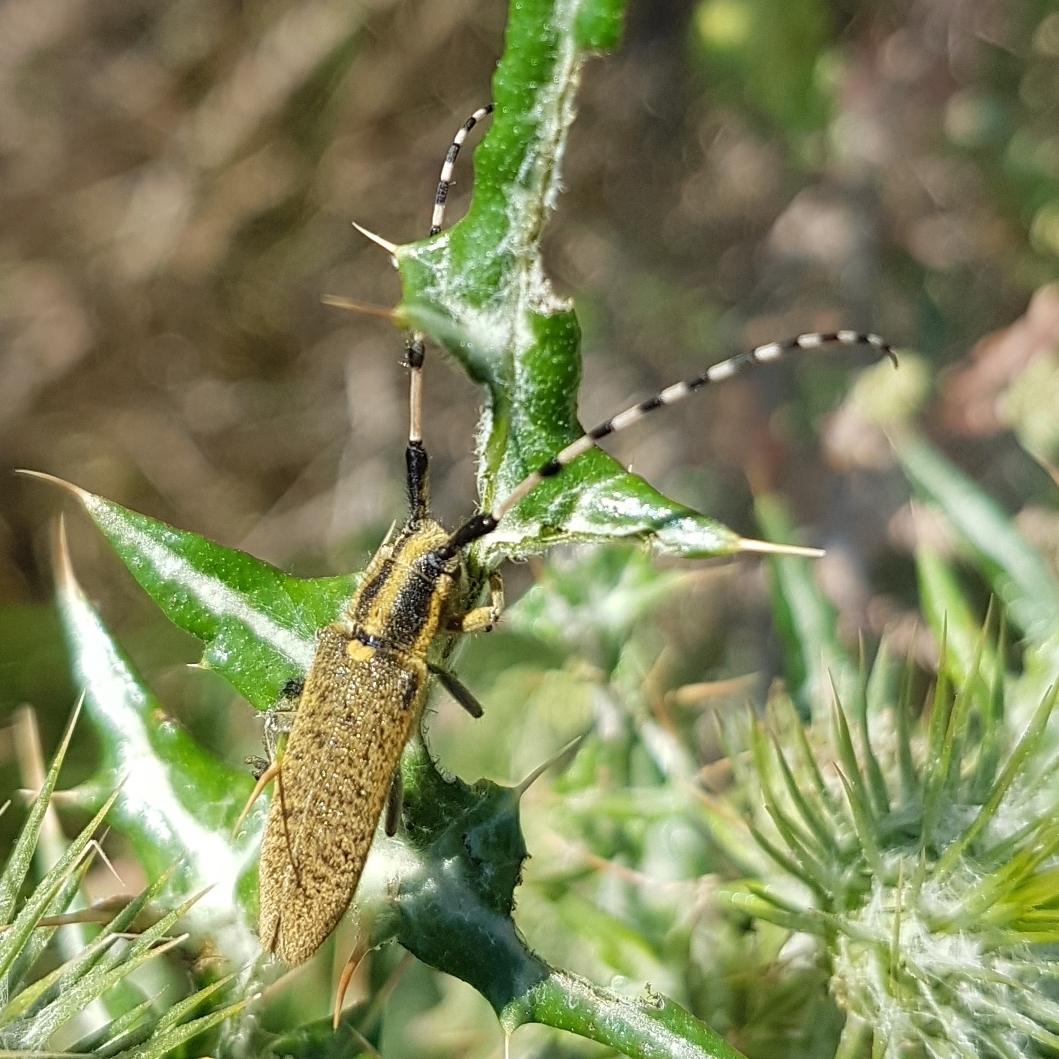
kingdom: Animalia
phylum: Arthropoda
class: Insecta
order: Coleoptera
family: Cerambycidae
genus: Agapanthia
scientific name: Agapanthia dahlii
